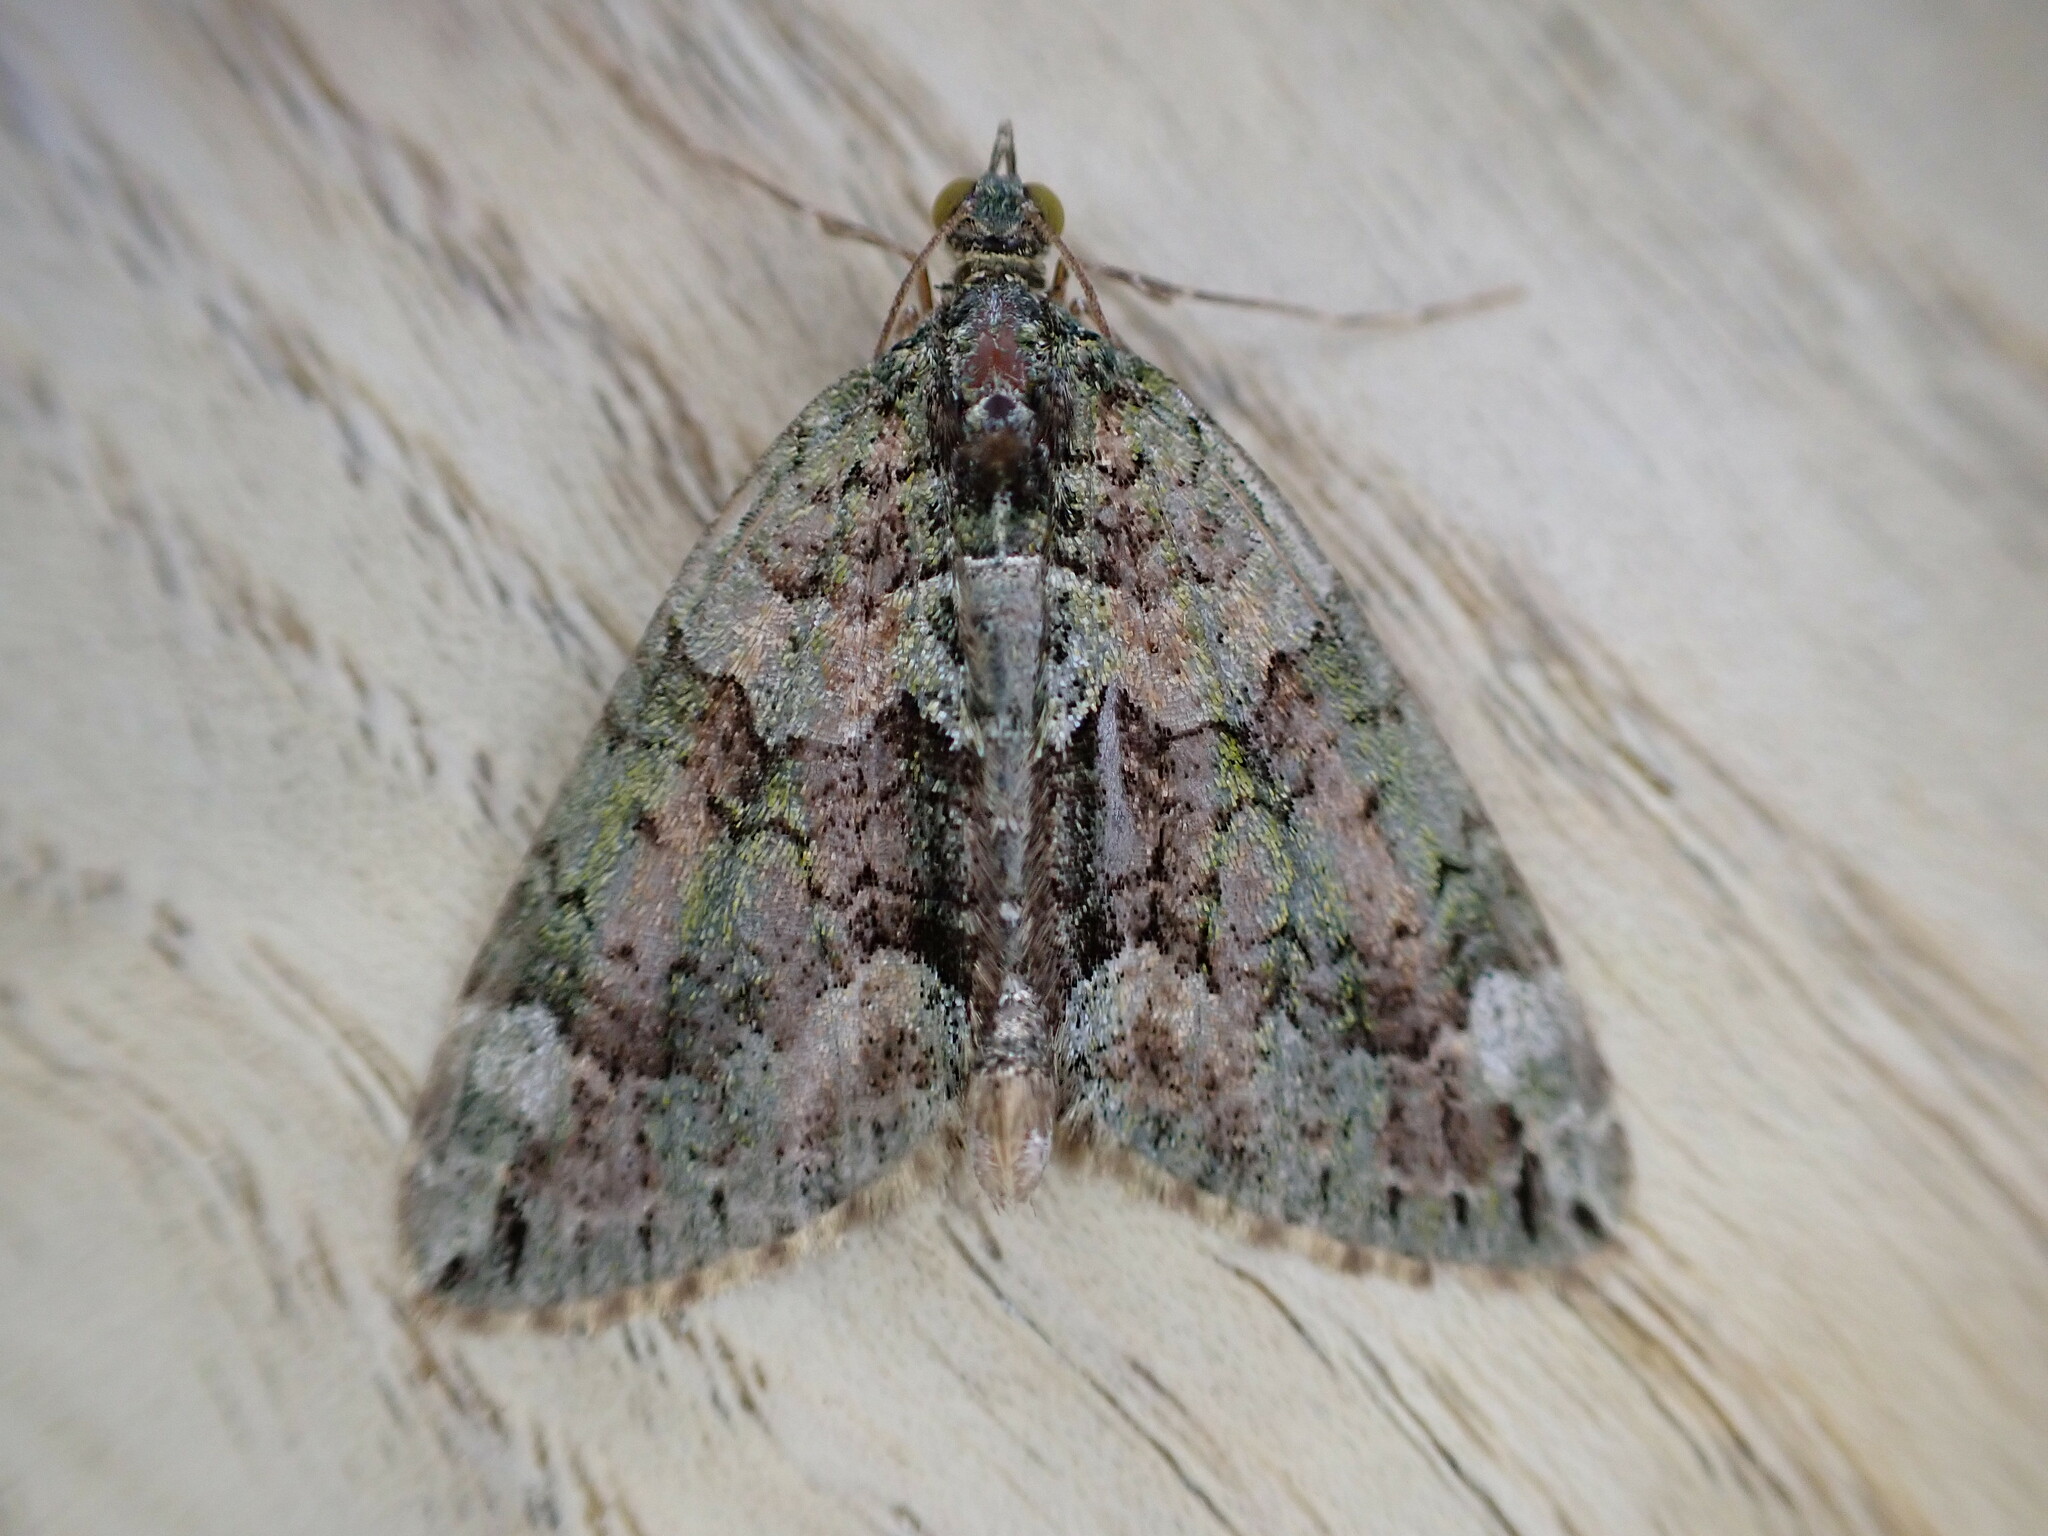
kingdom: Animalia
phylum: Arthropoda
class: Insecta
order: Lepidoptera
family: Geometridae
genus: Chloroclysta
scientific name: Chloroclysta siterata
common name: Red-green carpet
